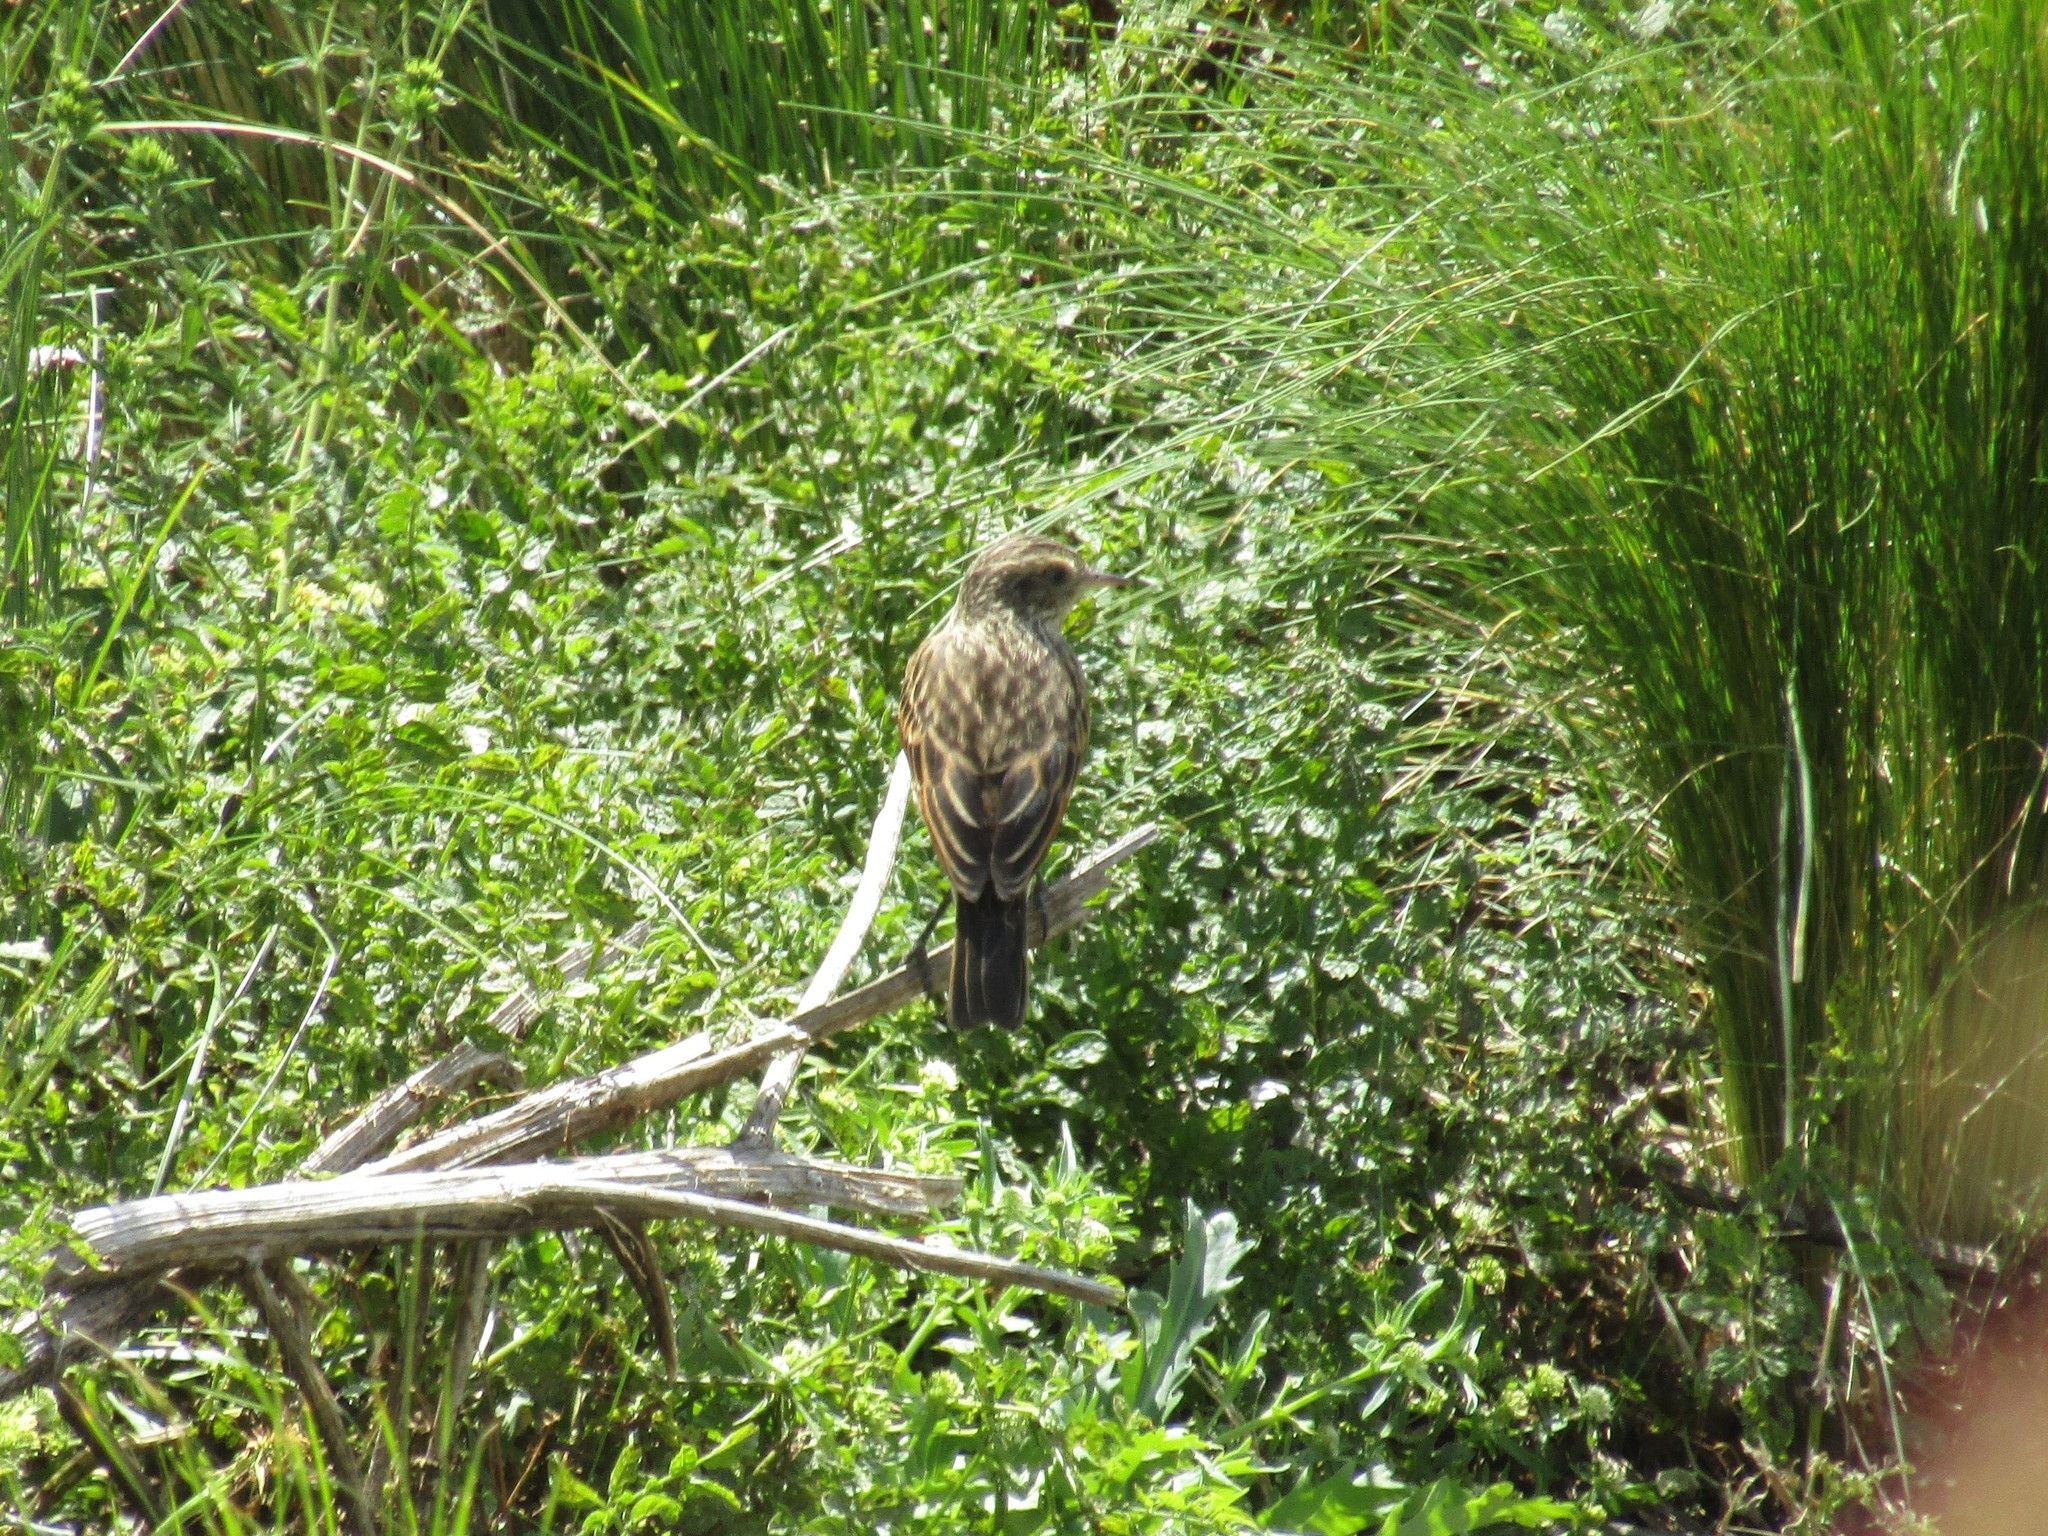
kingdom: Animalia
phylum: Chordata
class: Aves
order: Passeriformes
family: Tyrannidae
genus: Hymenops
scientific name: Hymenops perspicillatus
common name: Spectacled tyrant
